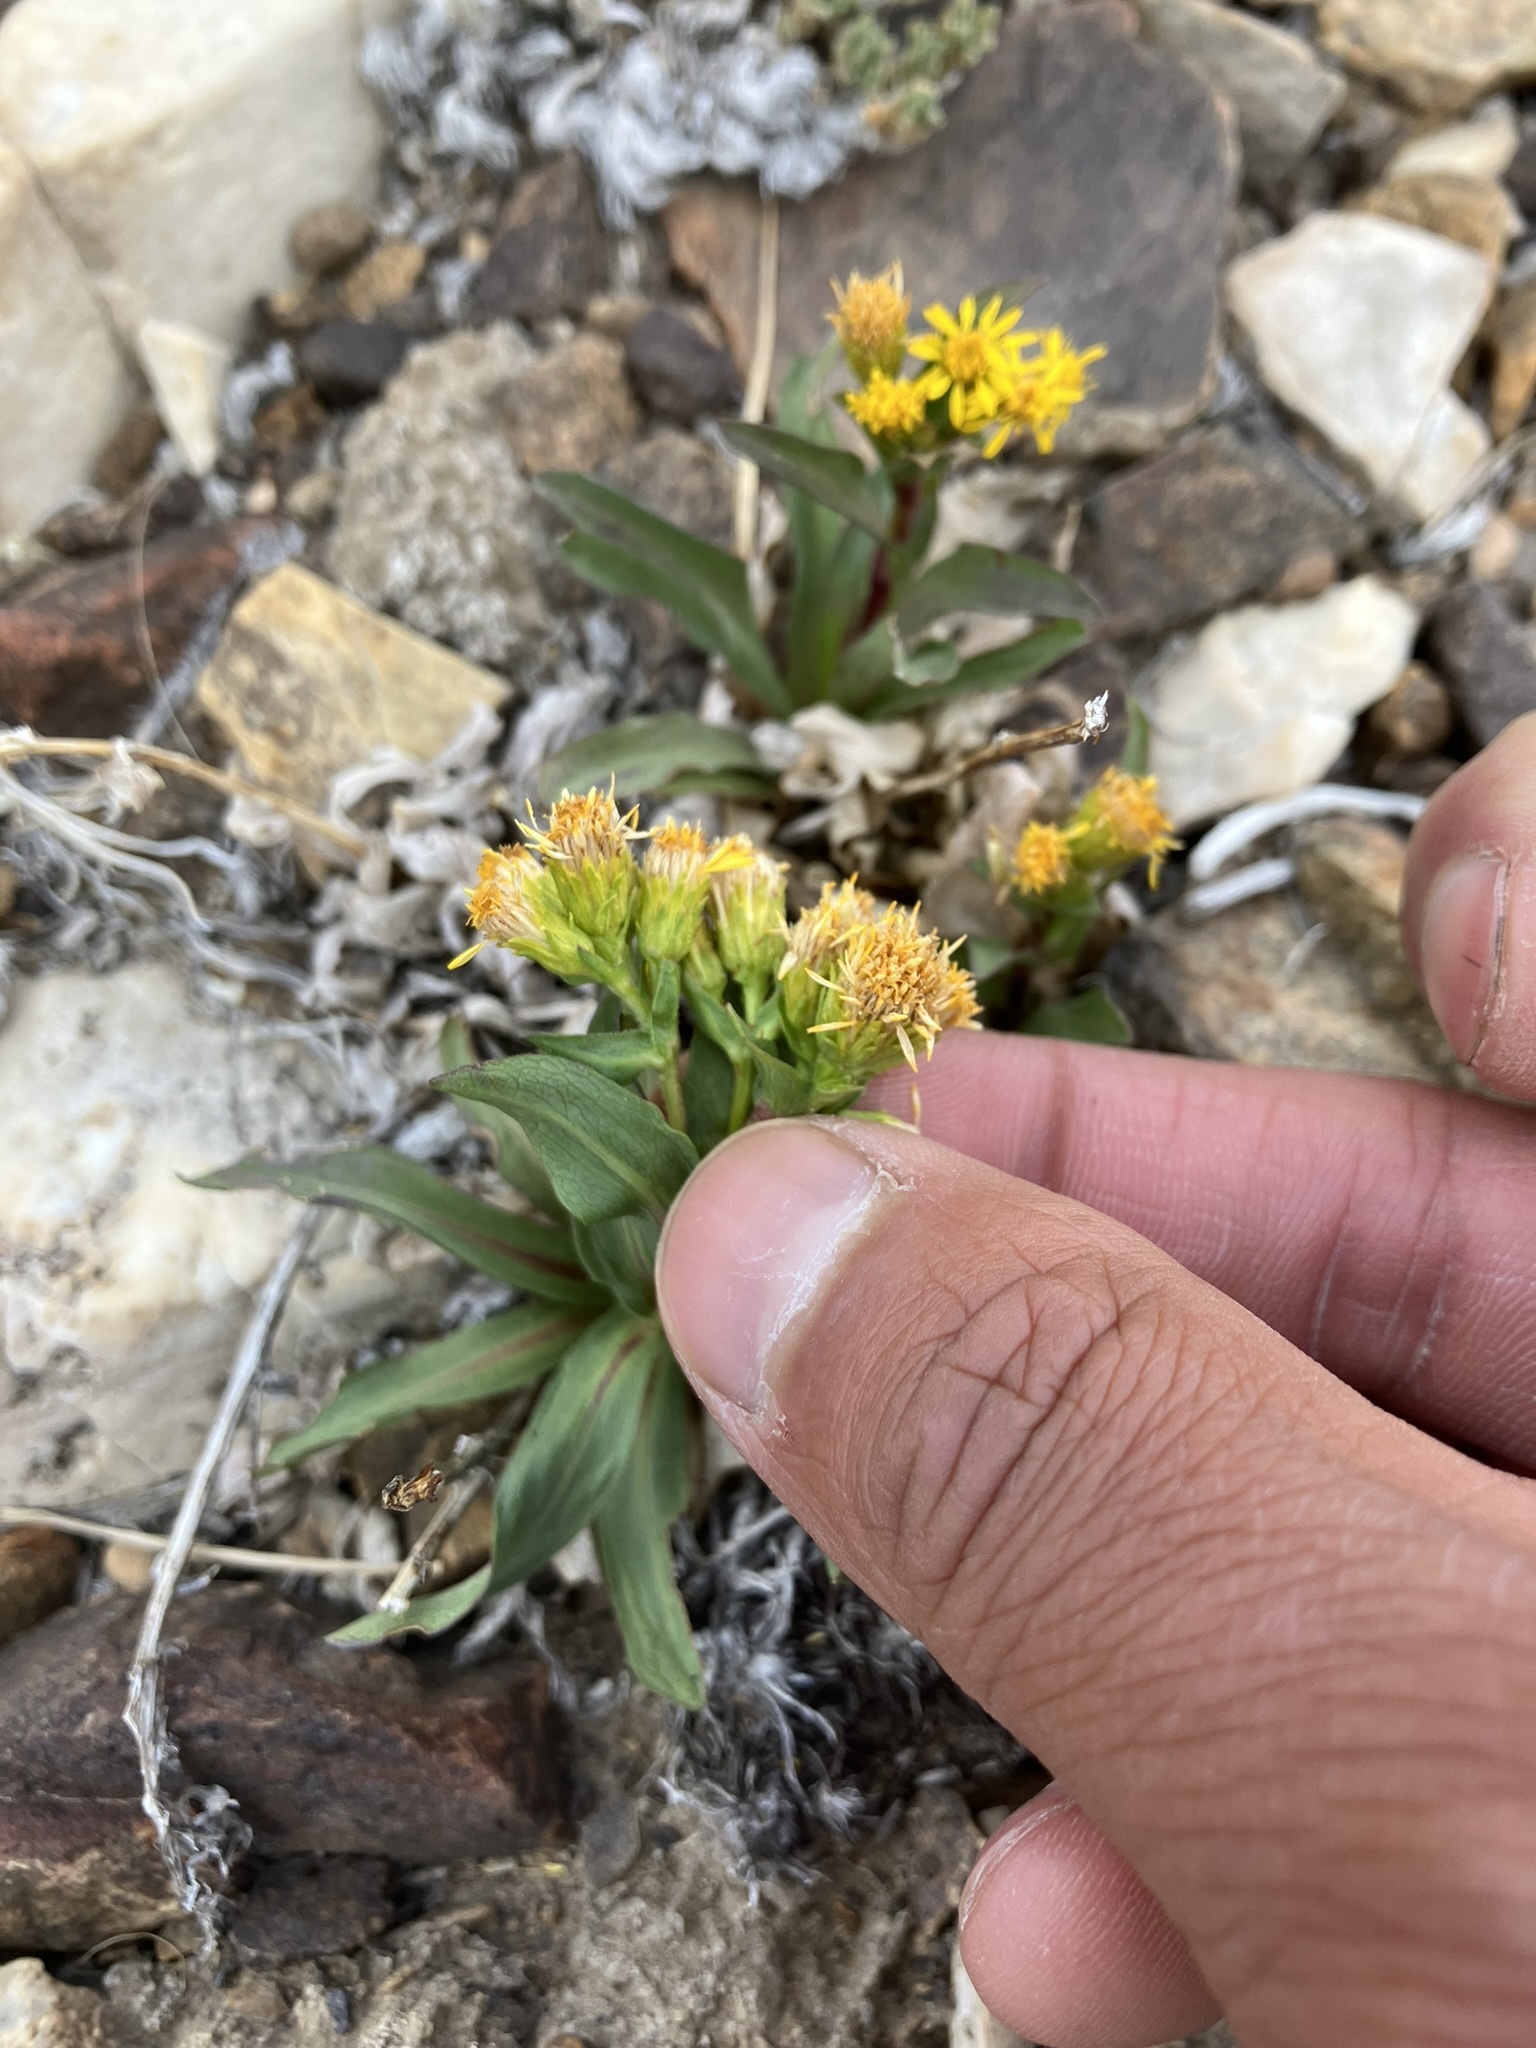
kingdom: Plantae
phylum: Tracheophyta
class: Magnoliopsida
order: Asterales
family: Asteraceae
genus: Solidago
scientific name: Solidago multiradiata
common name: Northern goldenrod
